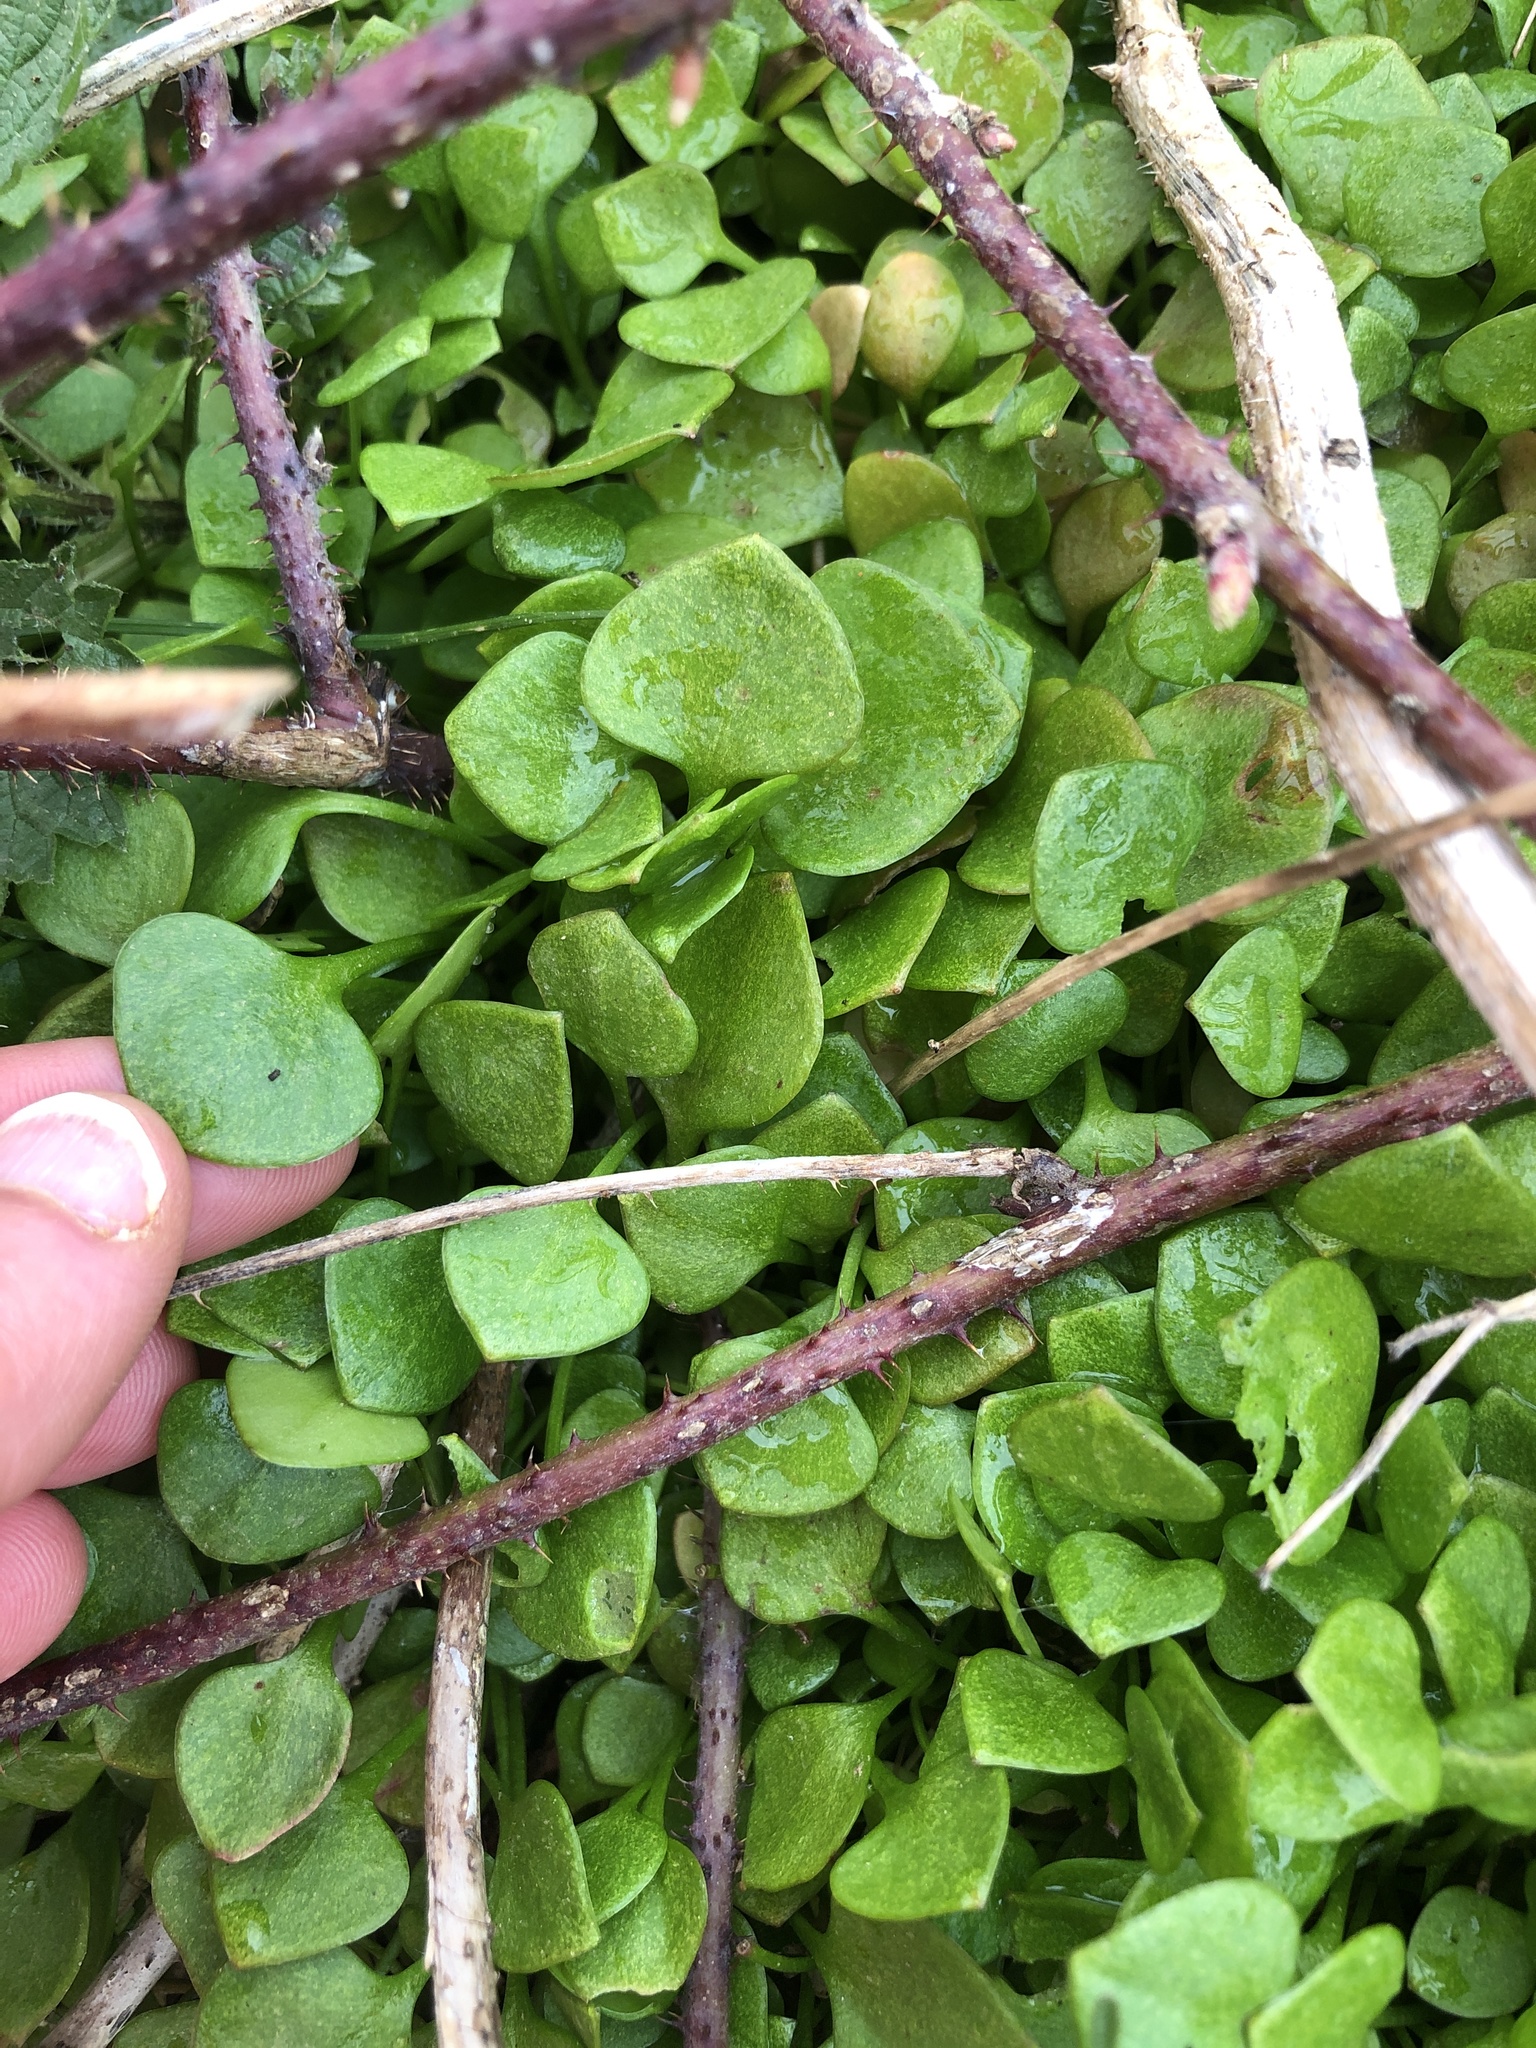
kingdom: Plantae
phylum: Tracheophyta
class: Magnoliopsida
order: Caryophyllales
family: Montiaceae
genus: Claytonia
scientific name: Claytonia perfoliata
